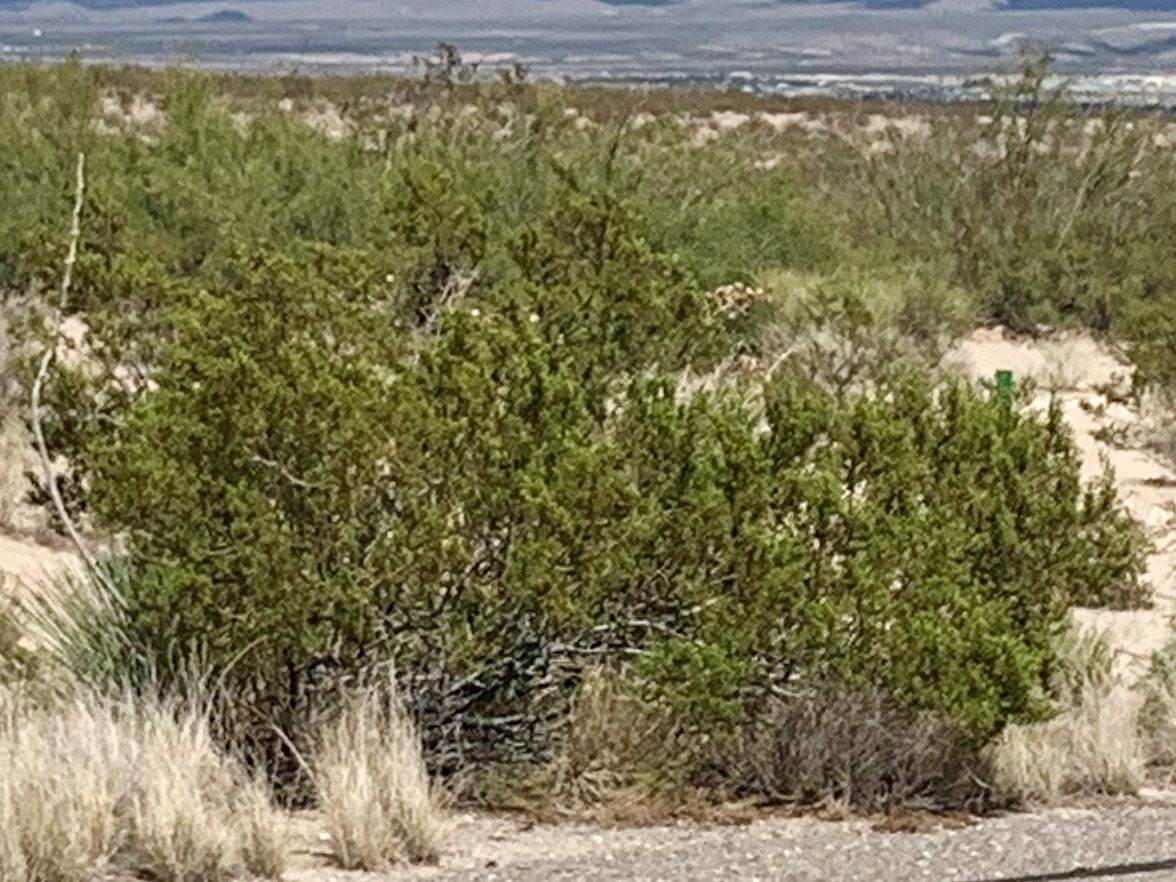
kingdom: Plantae
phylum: Tracheophyta
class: Magnoliopsida
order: Zygophyllales
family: Zygophyllaceae
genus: Larrea
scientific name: Larrea tridentata
